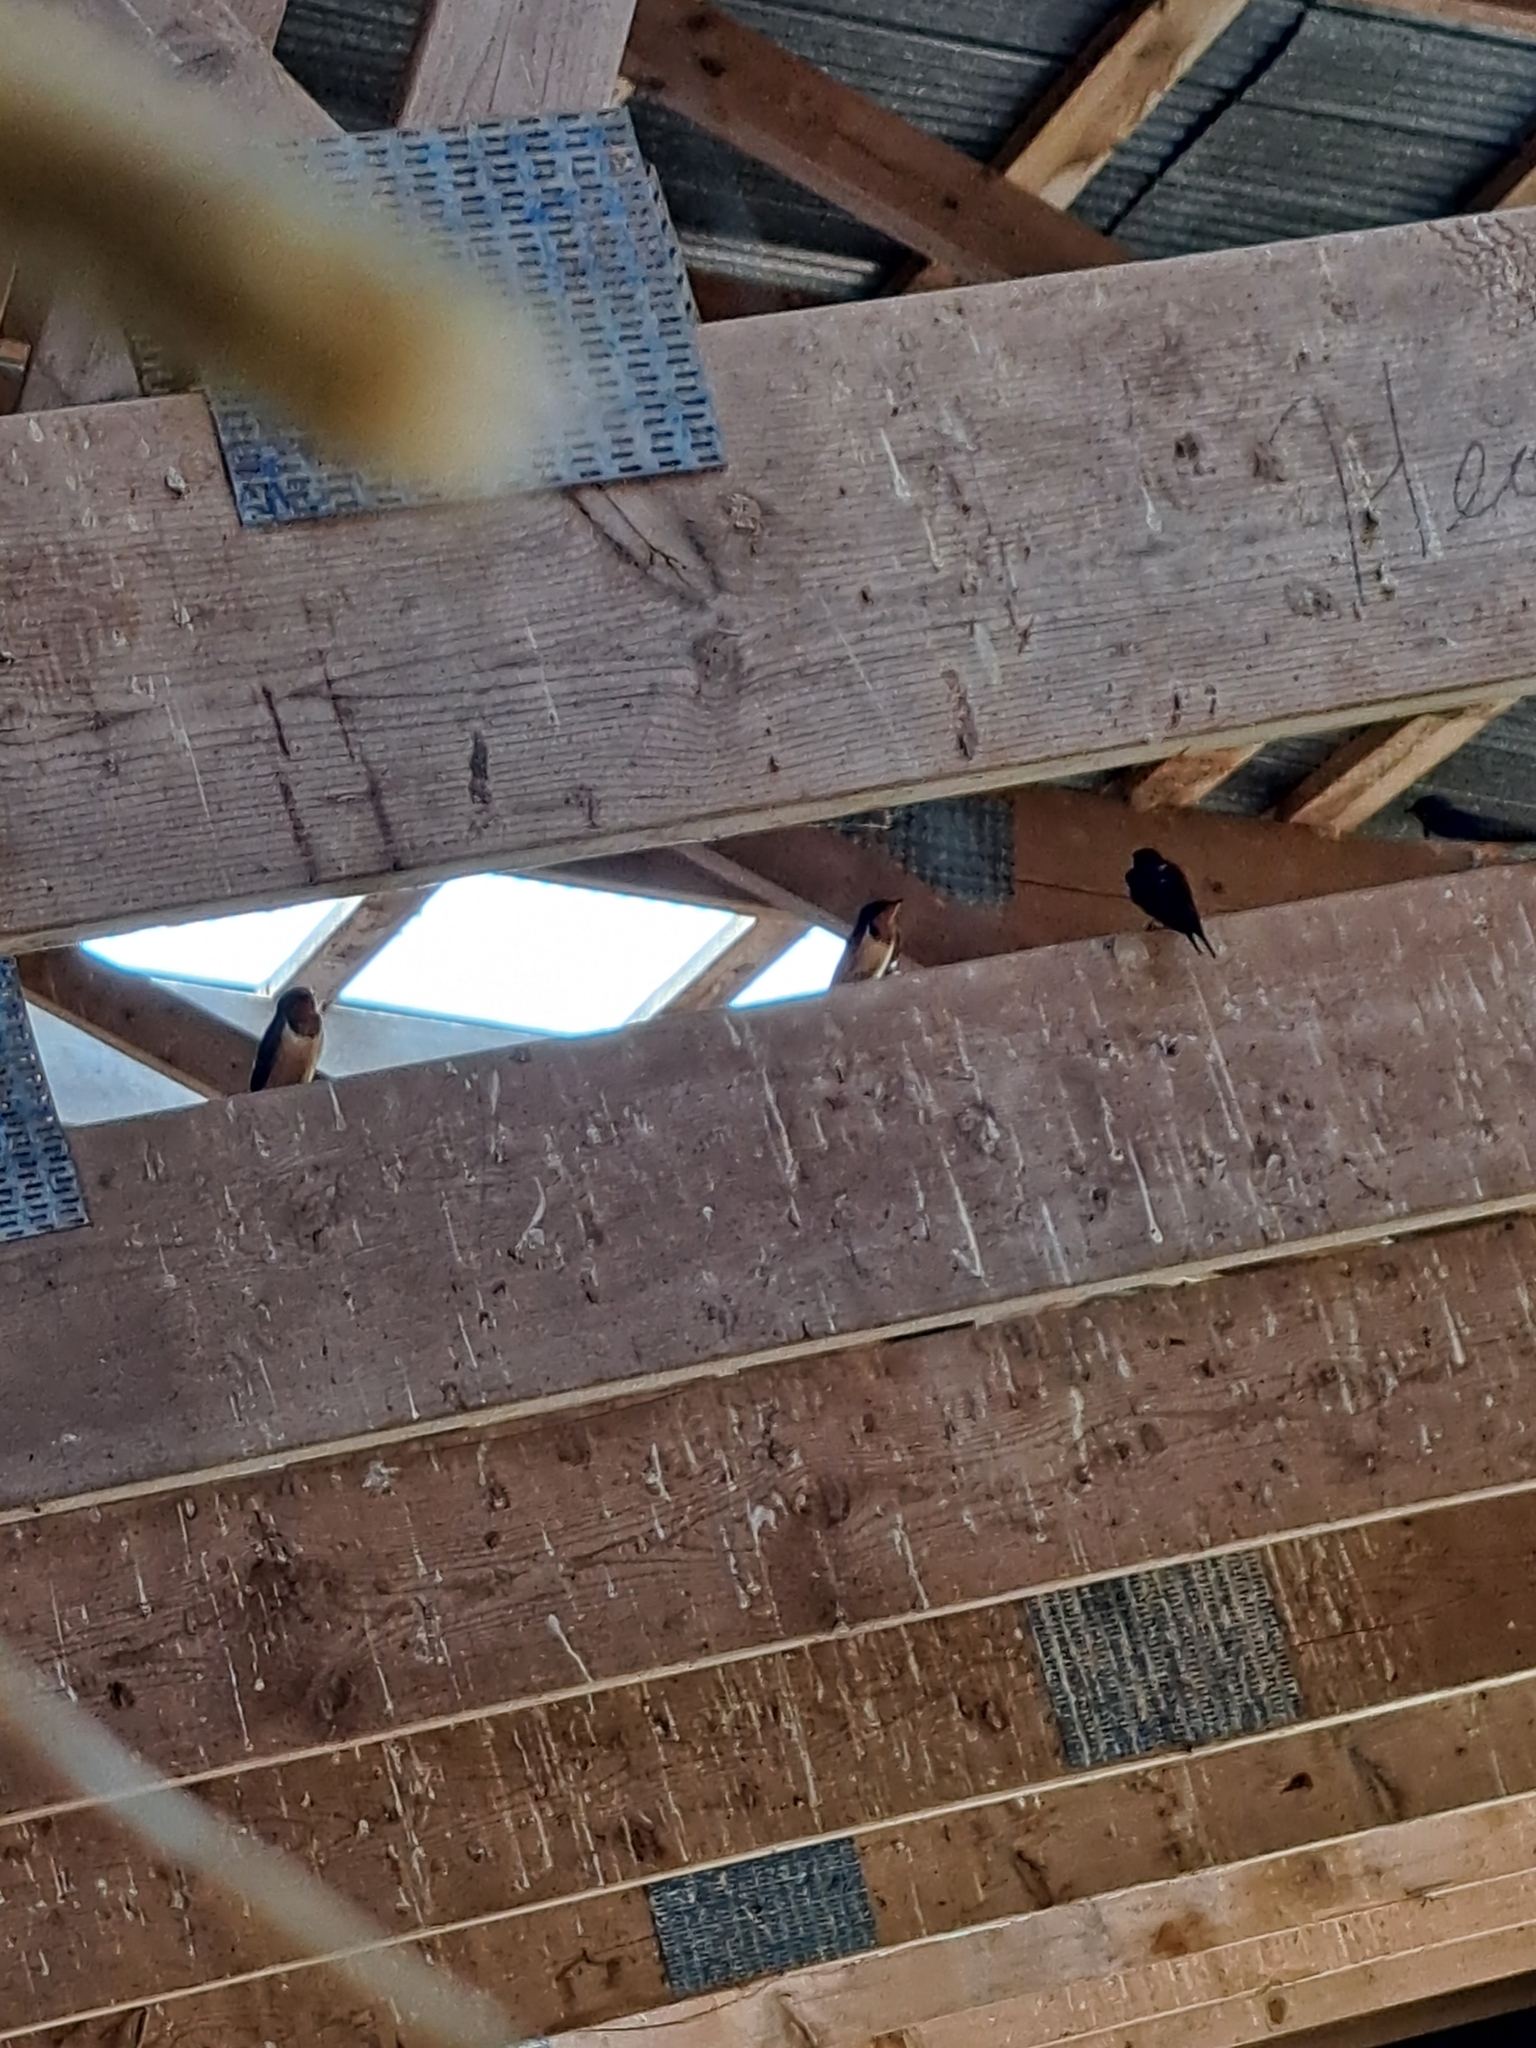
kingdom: Animalia
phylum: Chordata
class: Aves
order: Passeriformes
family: Hirundinidae
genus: Hirundo
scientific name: Hirundo rustica
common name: Barn swallow
